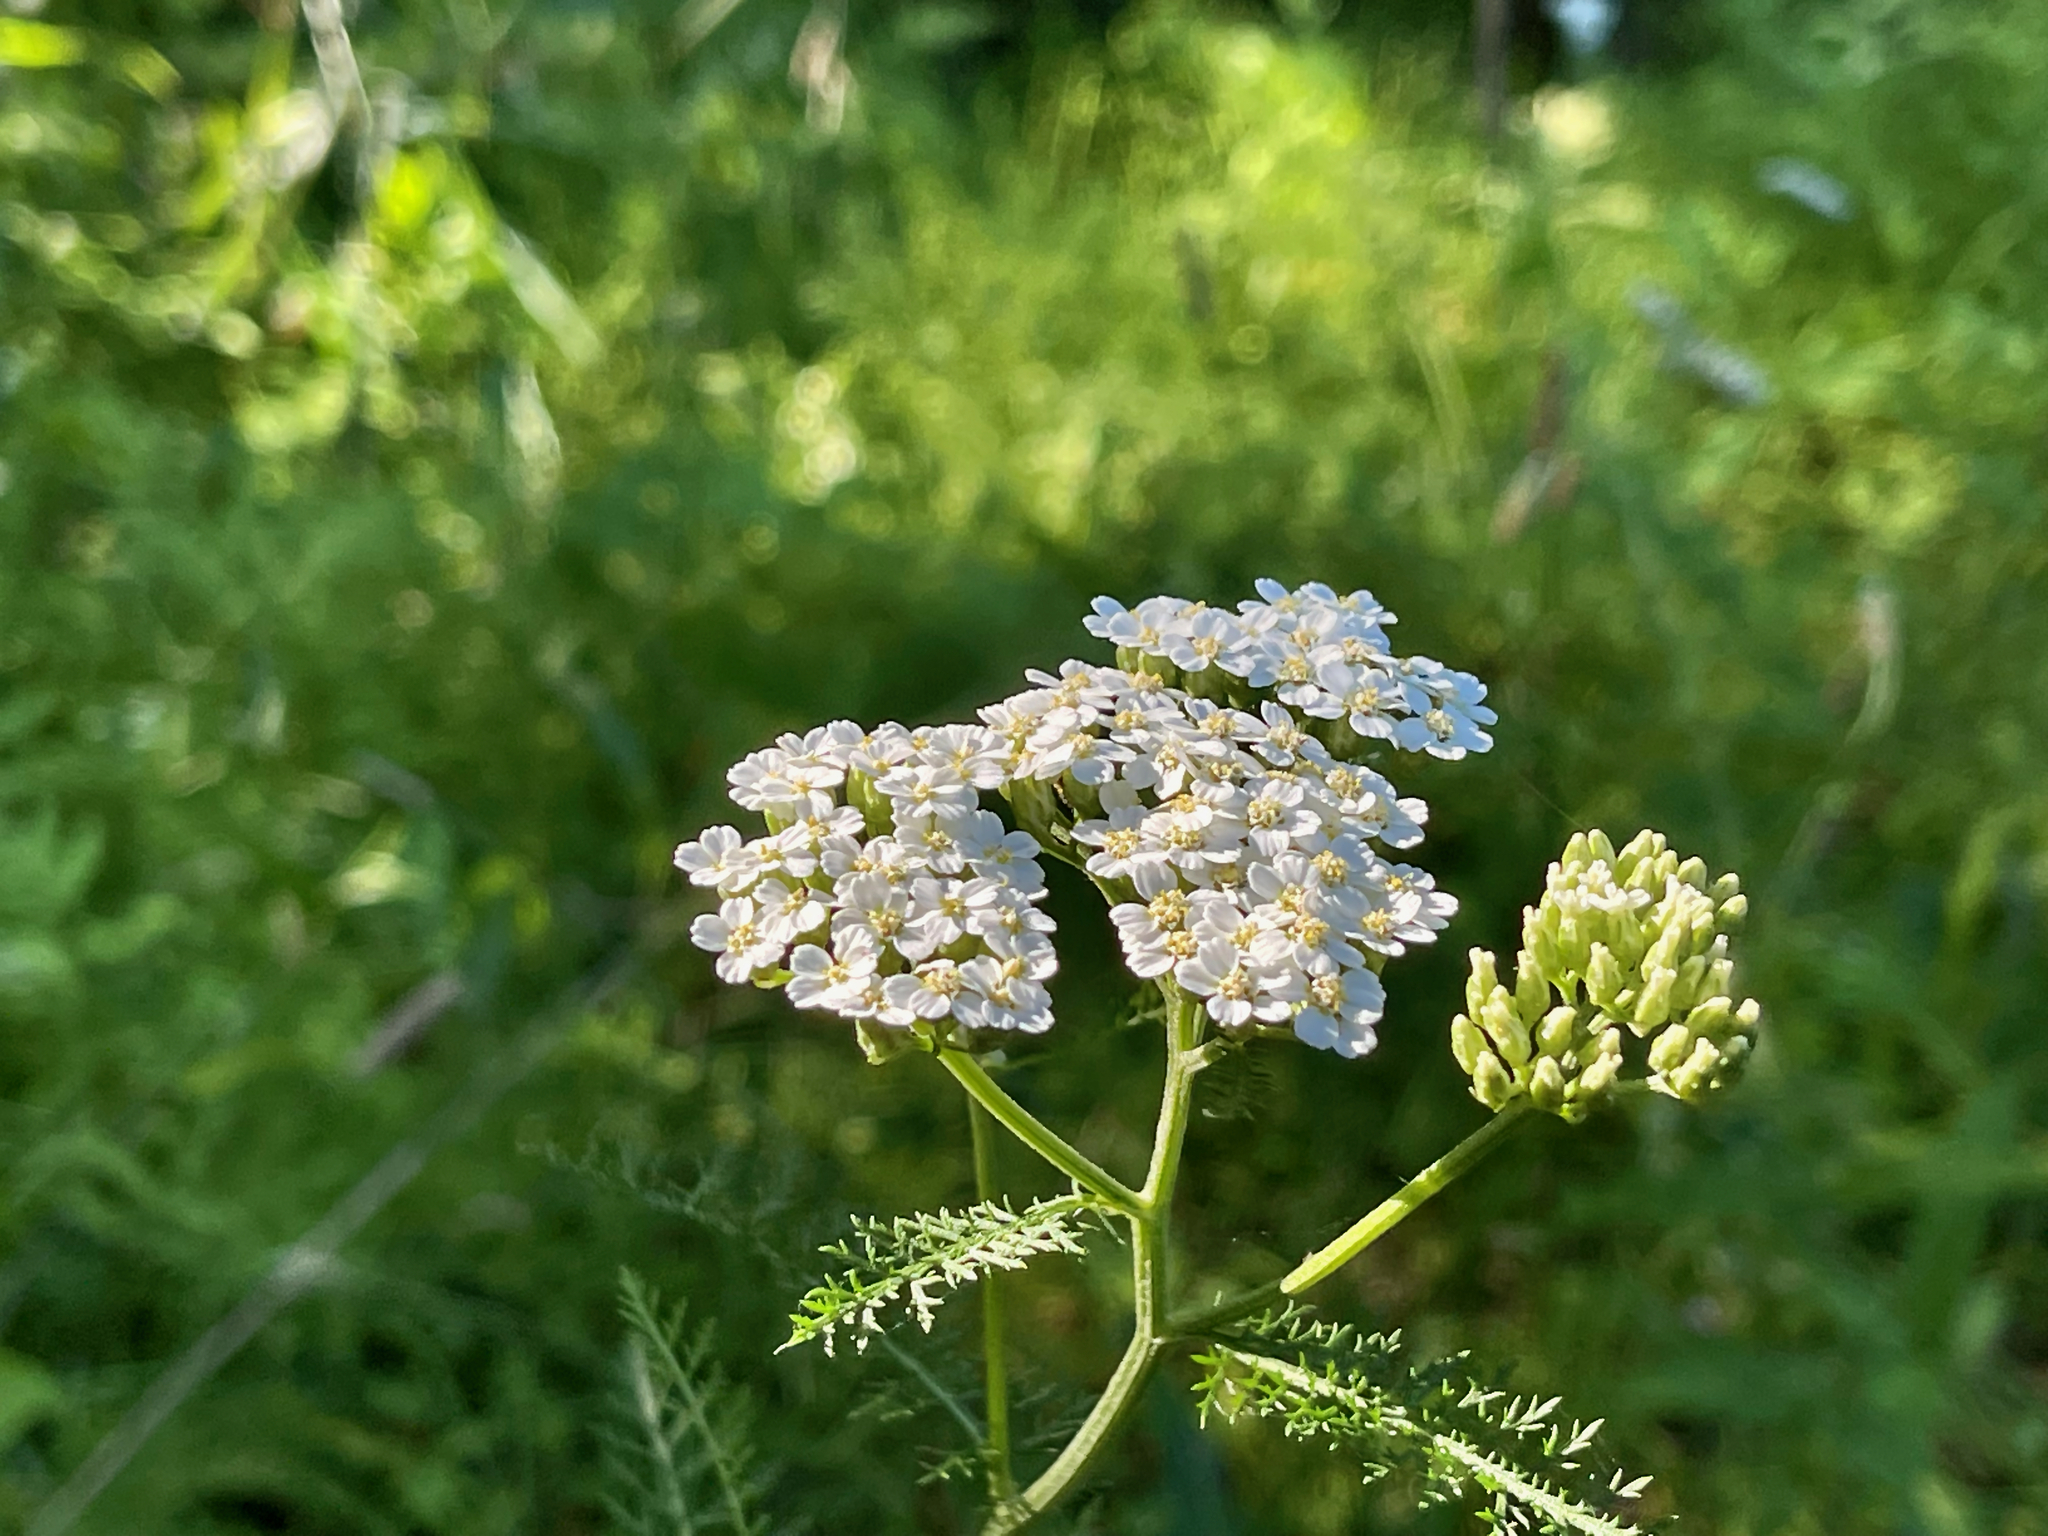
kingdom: Plantae
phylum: Tracheophyta
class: Magnoliopsida
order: Asterales
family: Asteraceae
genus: Achillea
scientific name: Achillea millefolium
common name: Yarrow
